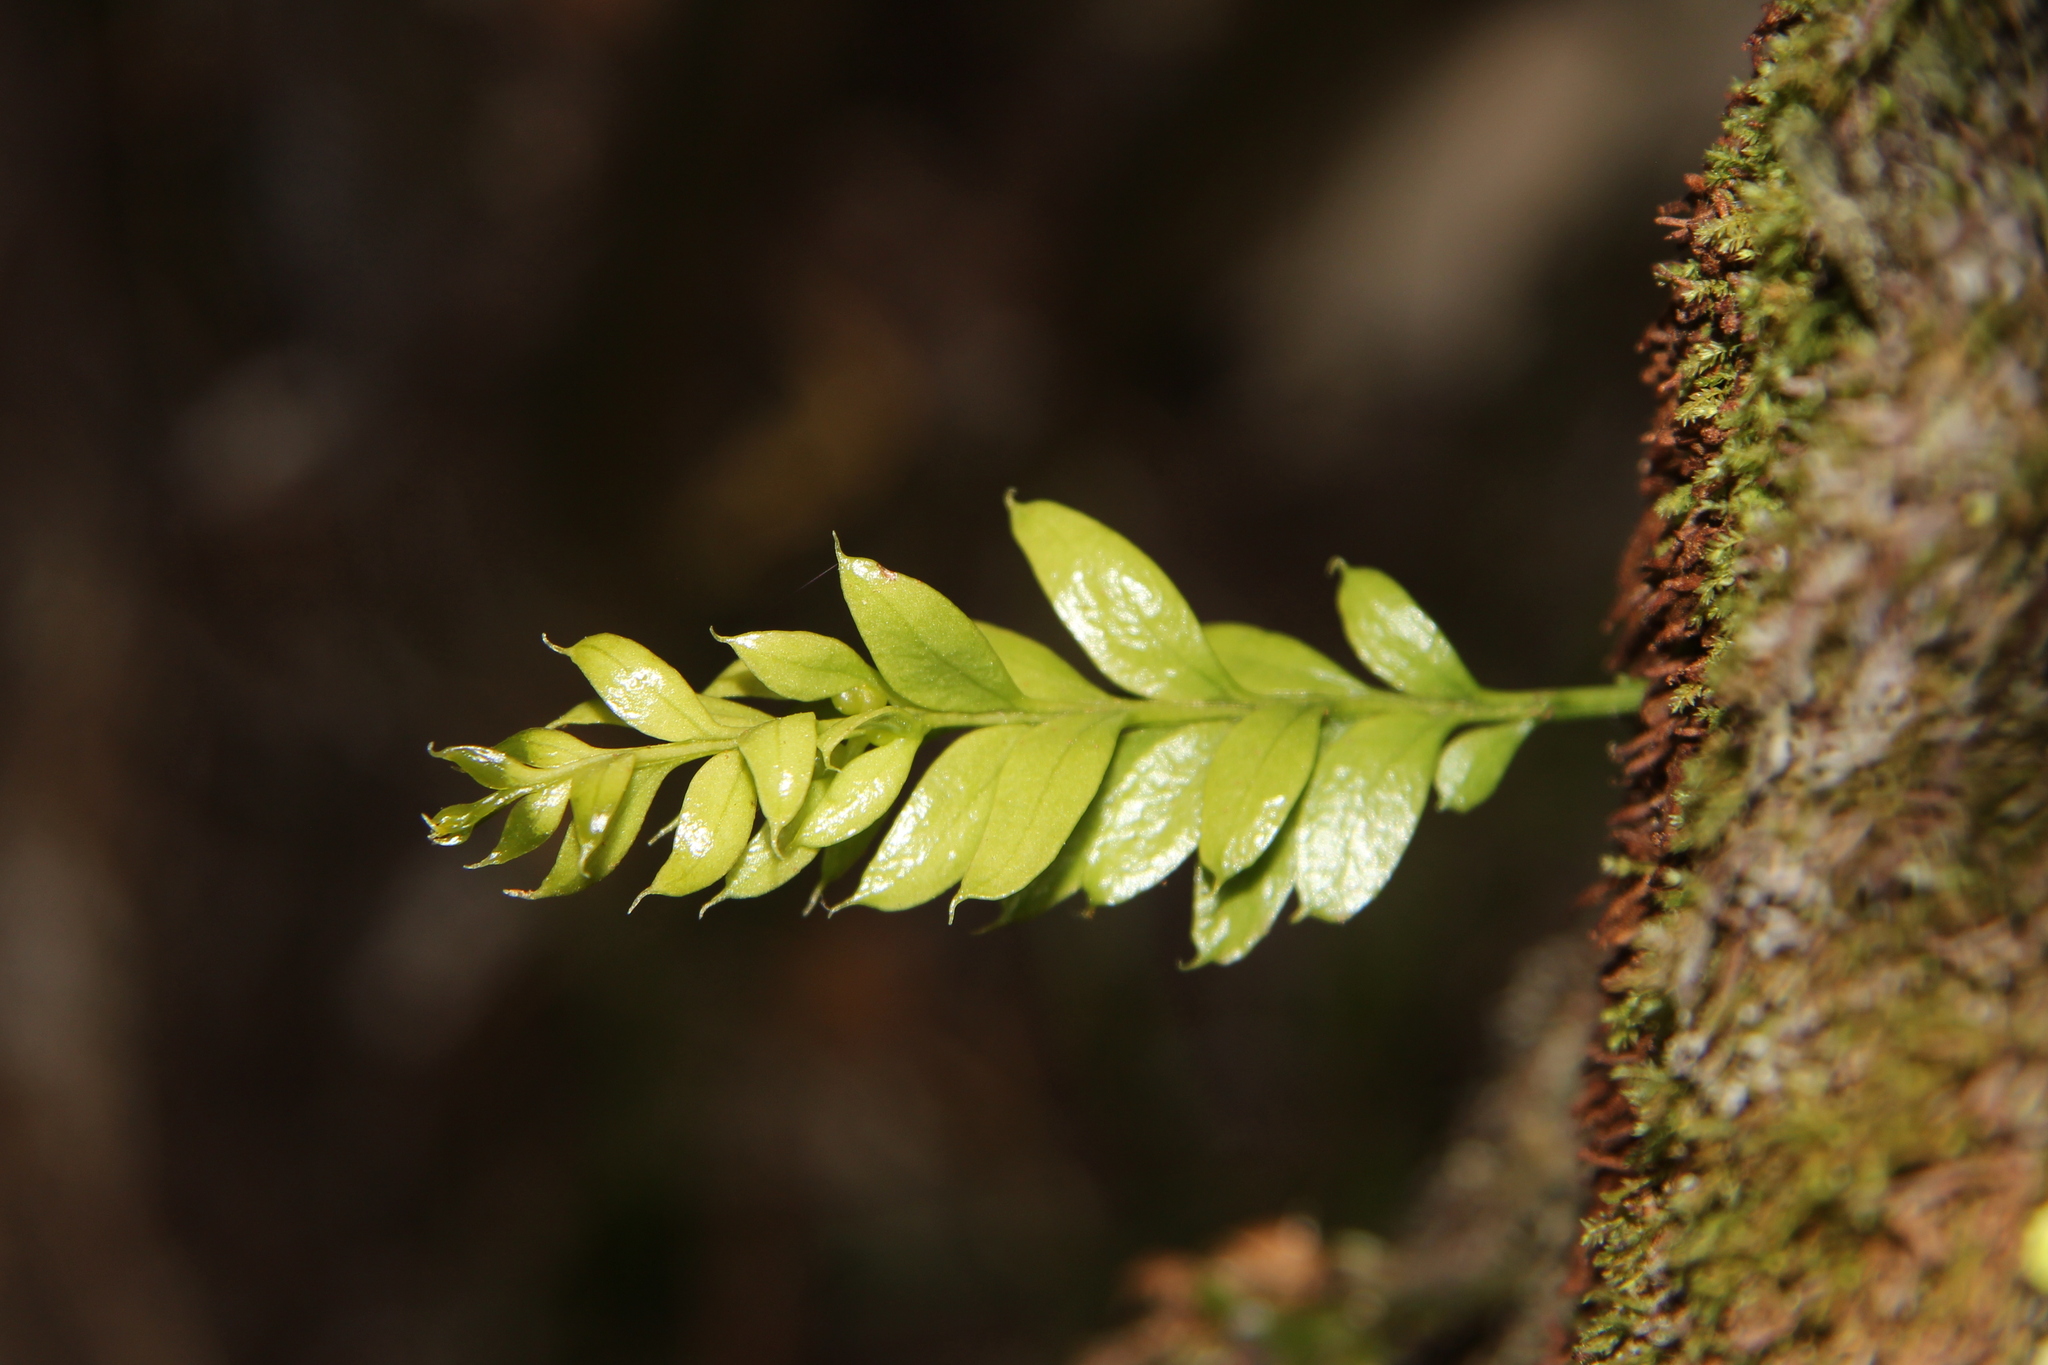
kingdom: Plantae
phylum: Tracheophyta
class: Polypodiopsida
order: Psilotales
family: Psilotaceae
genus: Tmesipteris
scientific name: Tmesipteris lanceolata
